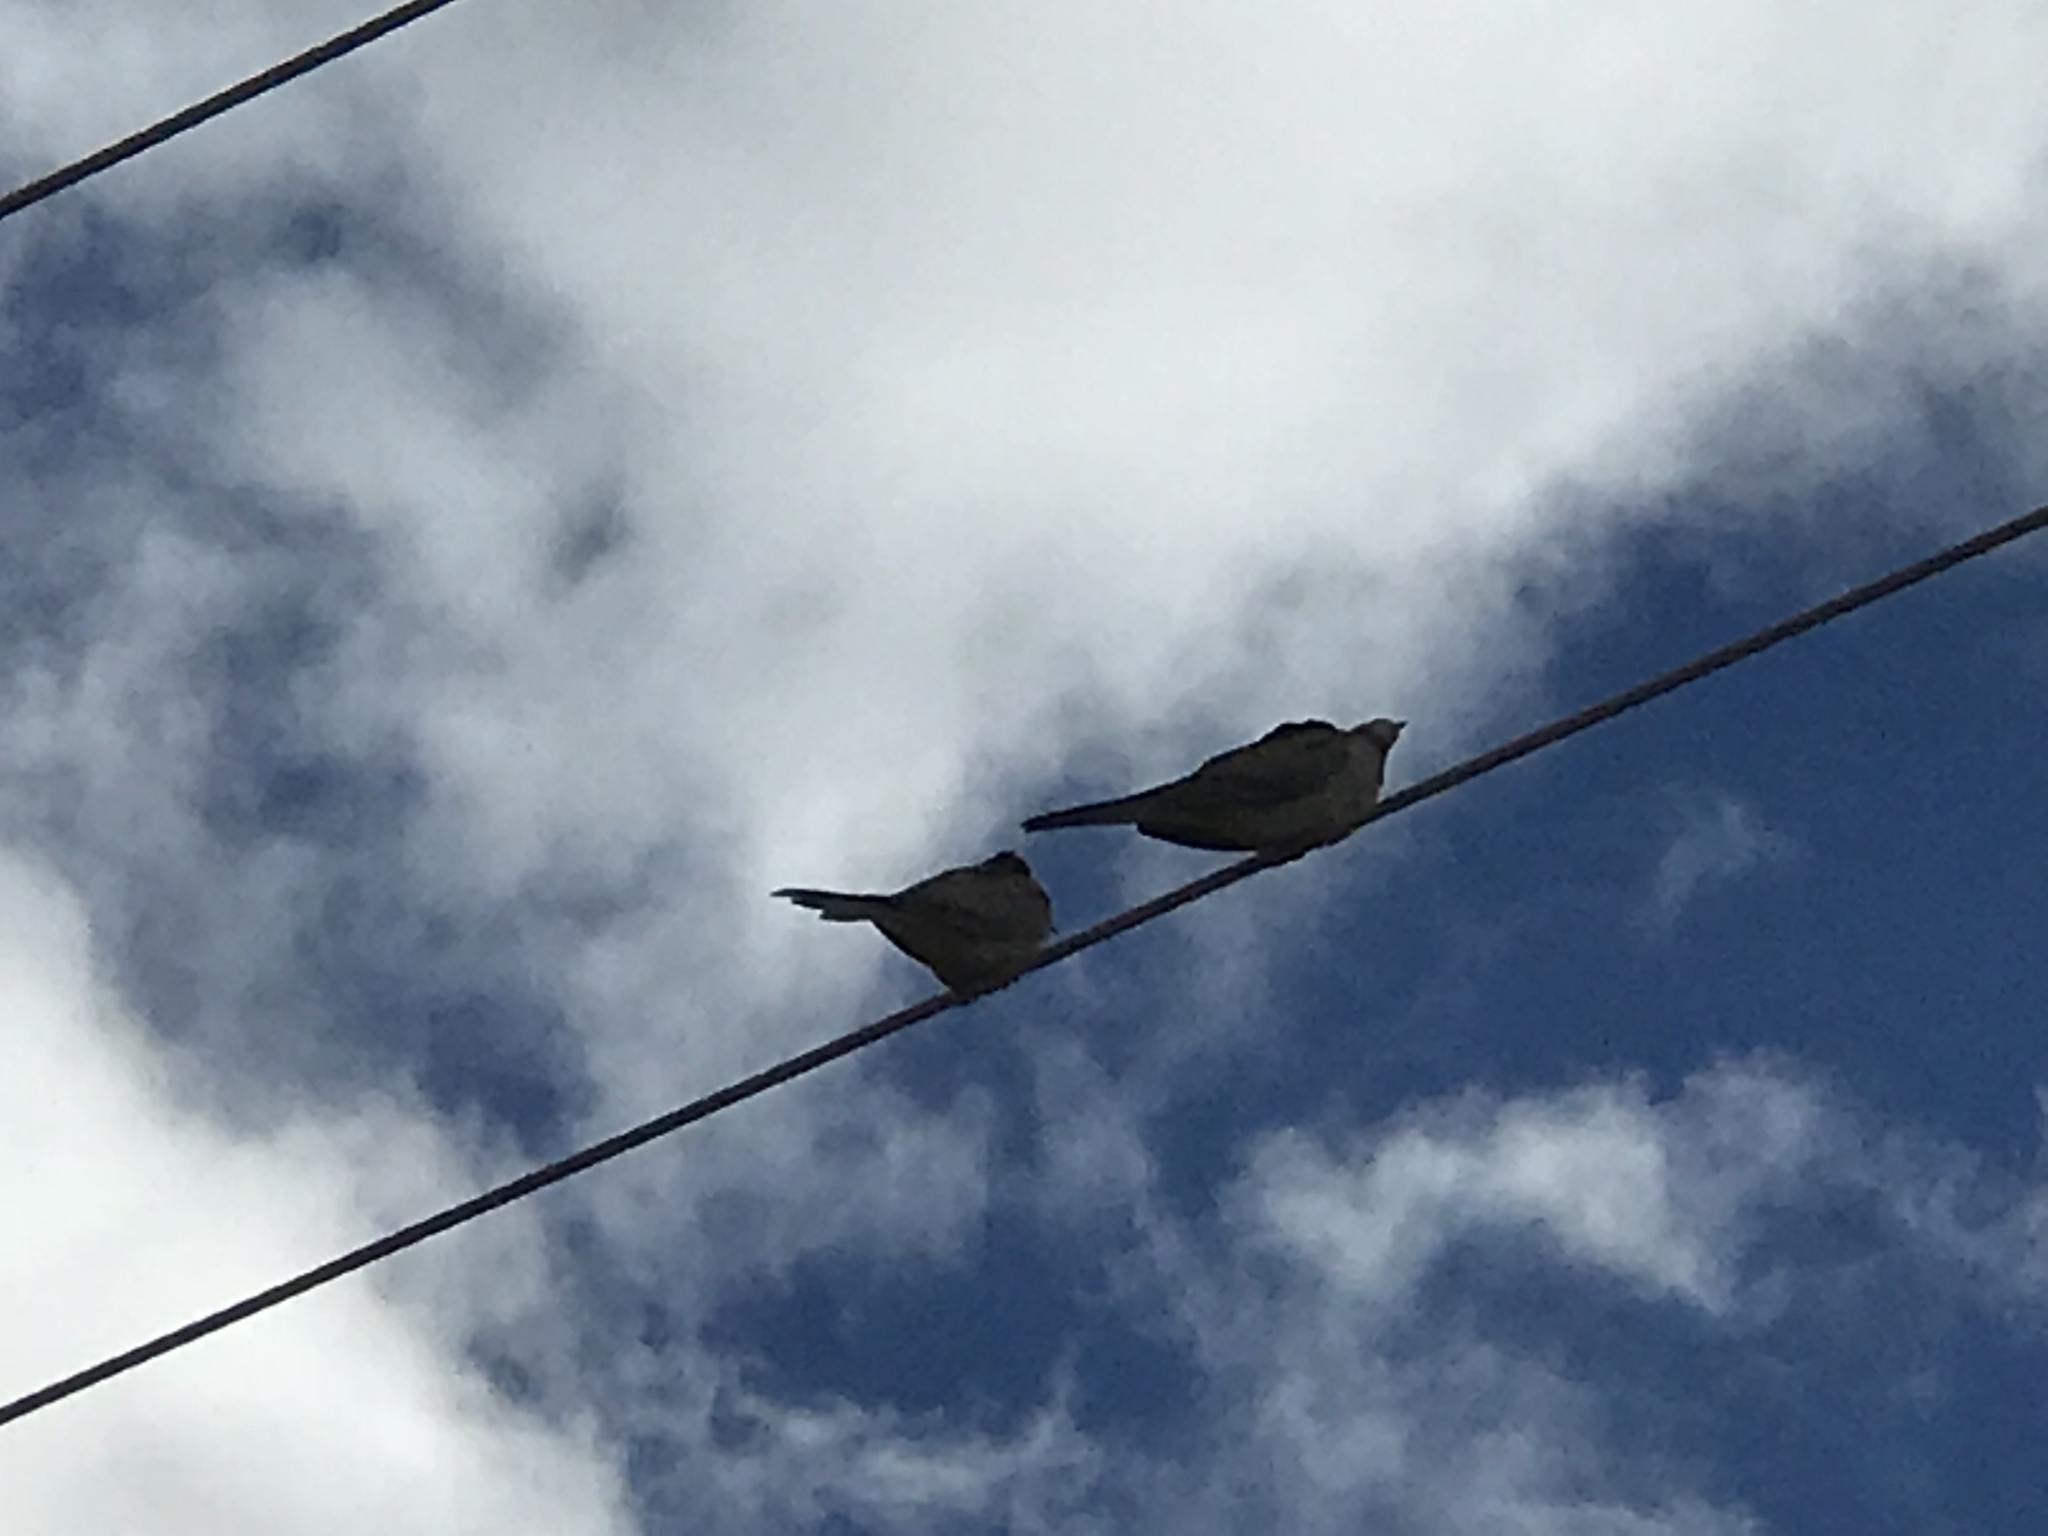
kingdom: Animalia
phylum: Chordata
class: Aves
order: Columbiformes
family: Columbidae
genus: Zenaida
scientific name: Zenaida macroura
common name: Mourning dove
